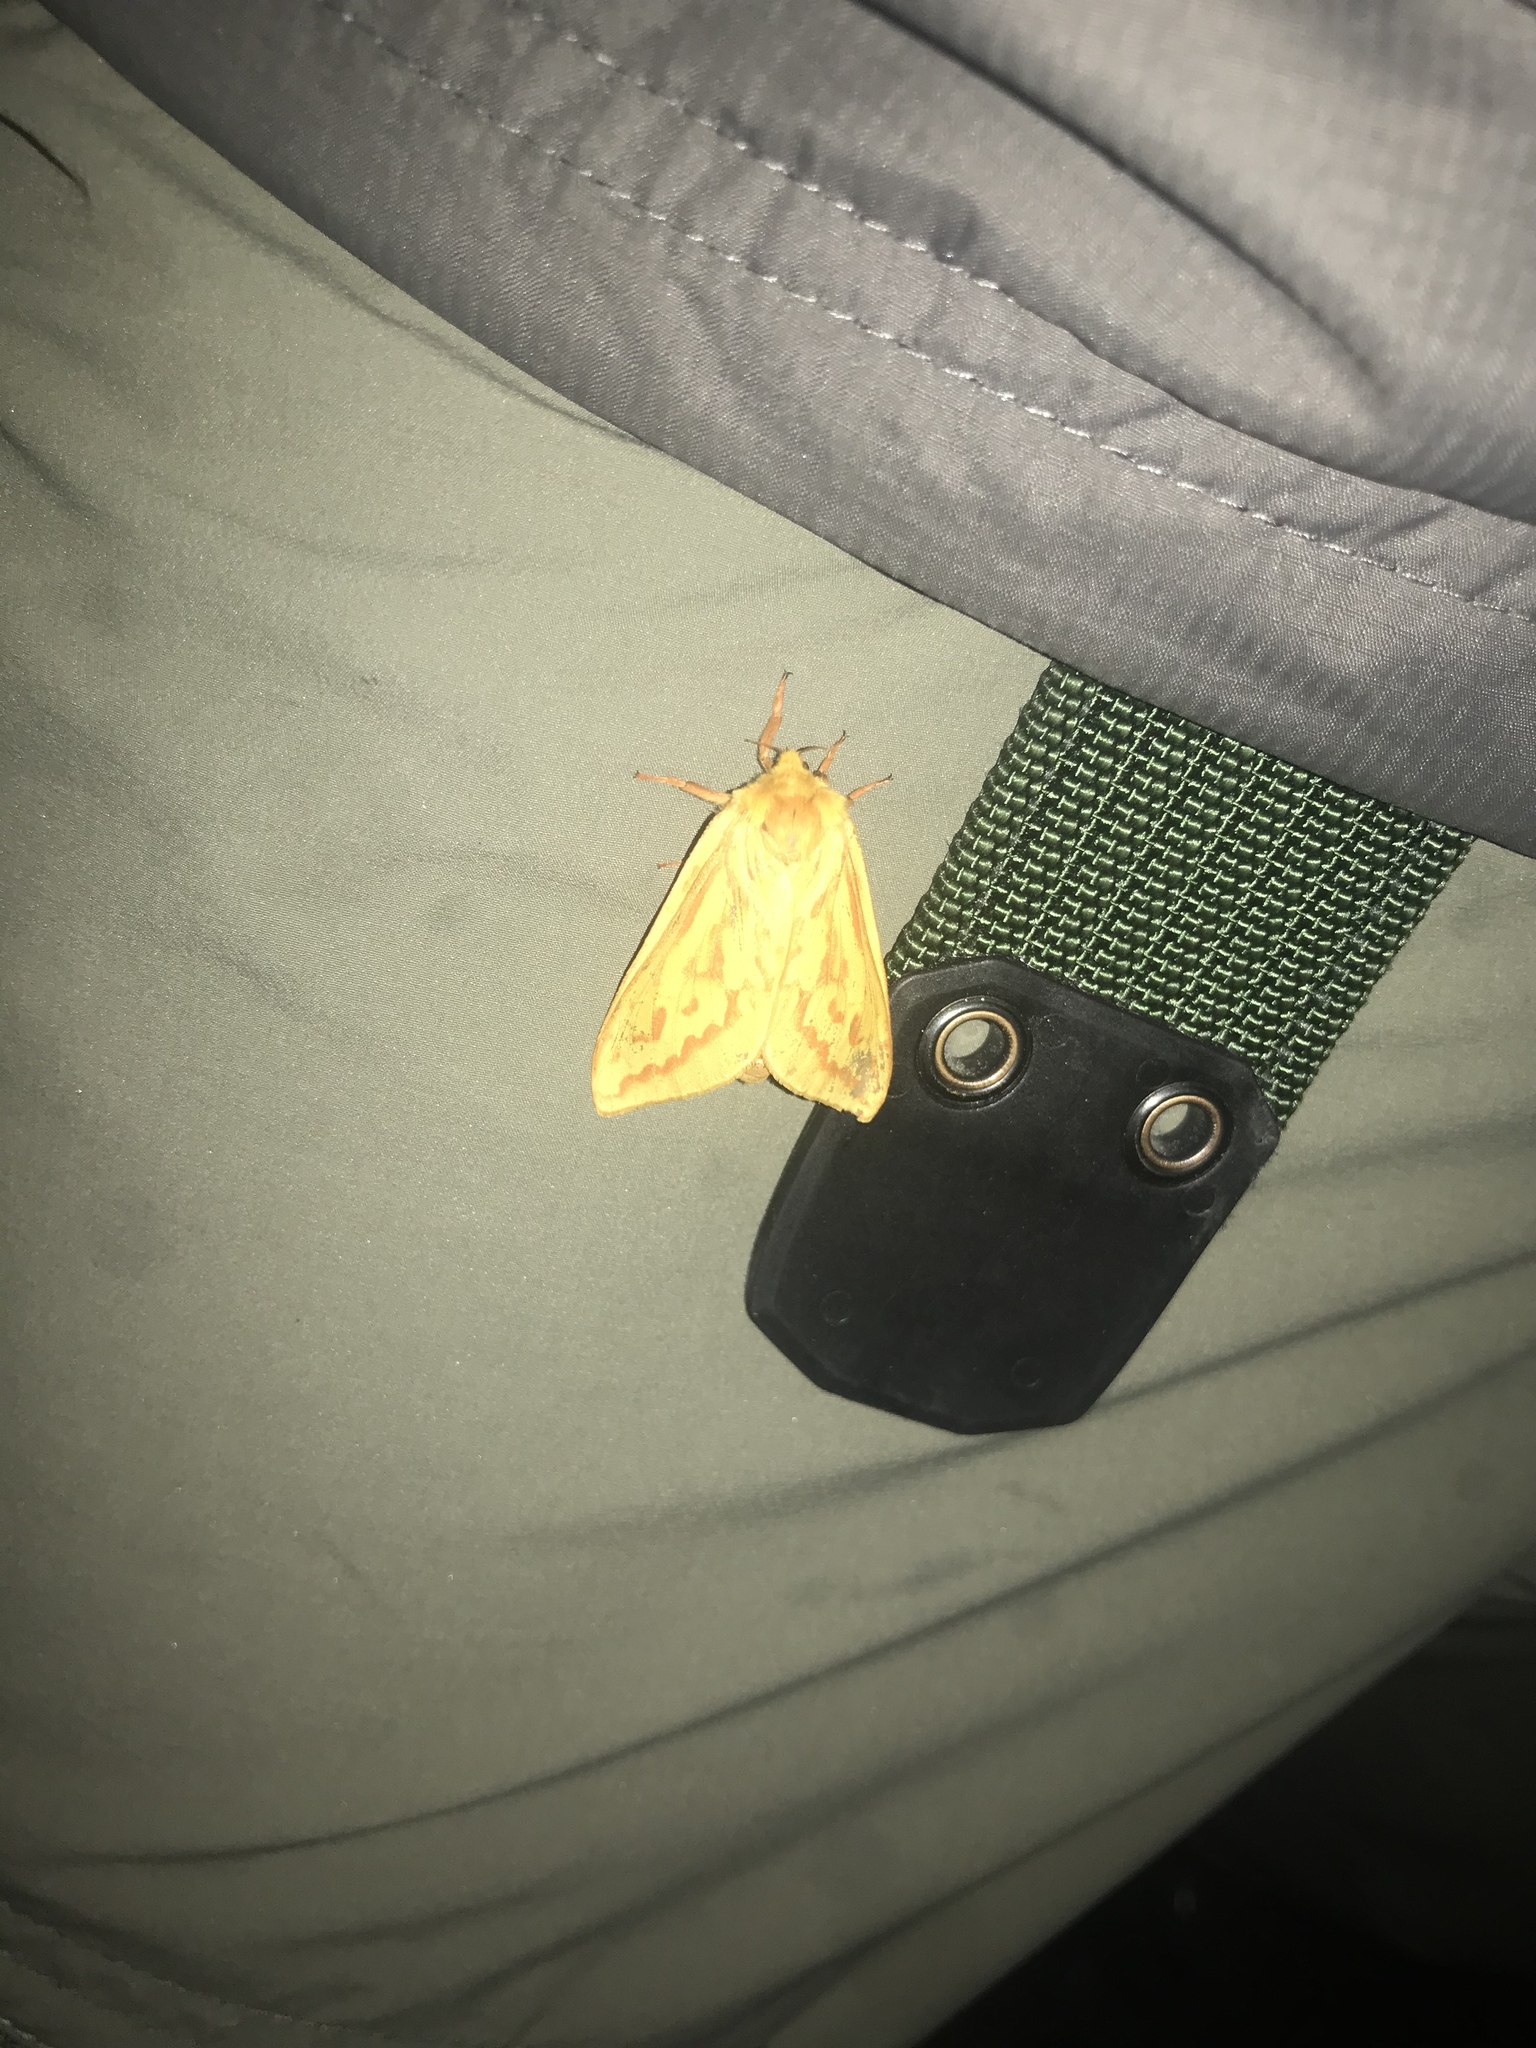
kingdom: Animalia
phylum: Arthropoda
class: Insecta
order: Lepidoptera
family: Hepialidae
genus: Hepialus
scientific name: Hepialus humuli
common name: Ghost moth
